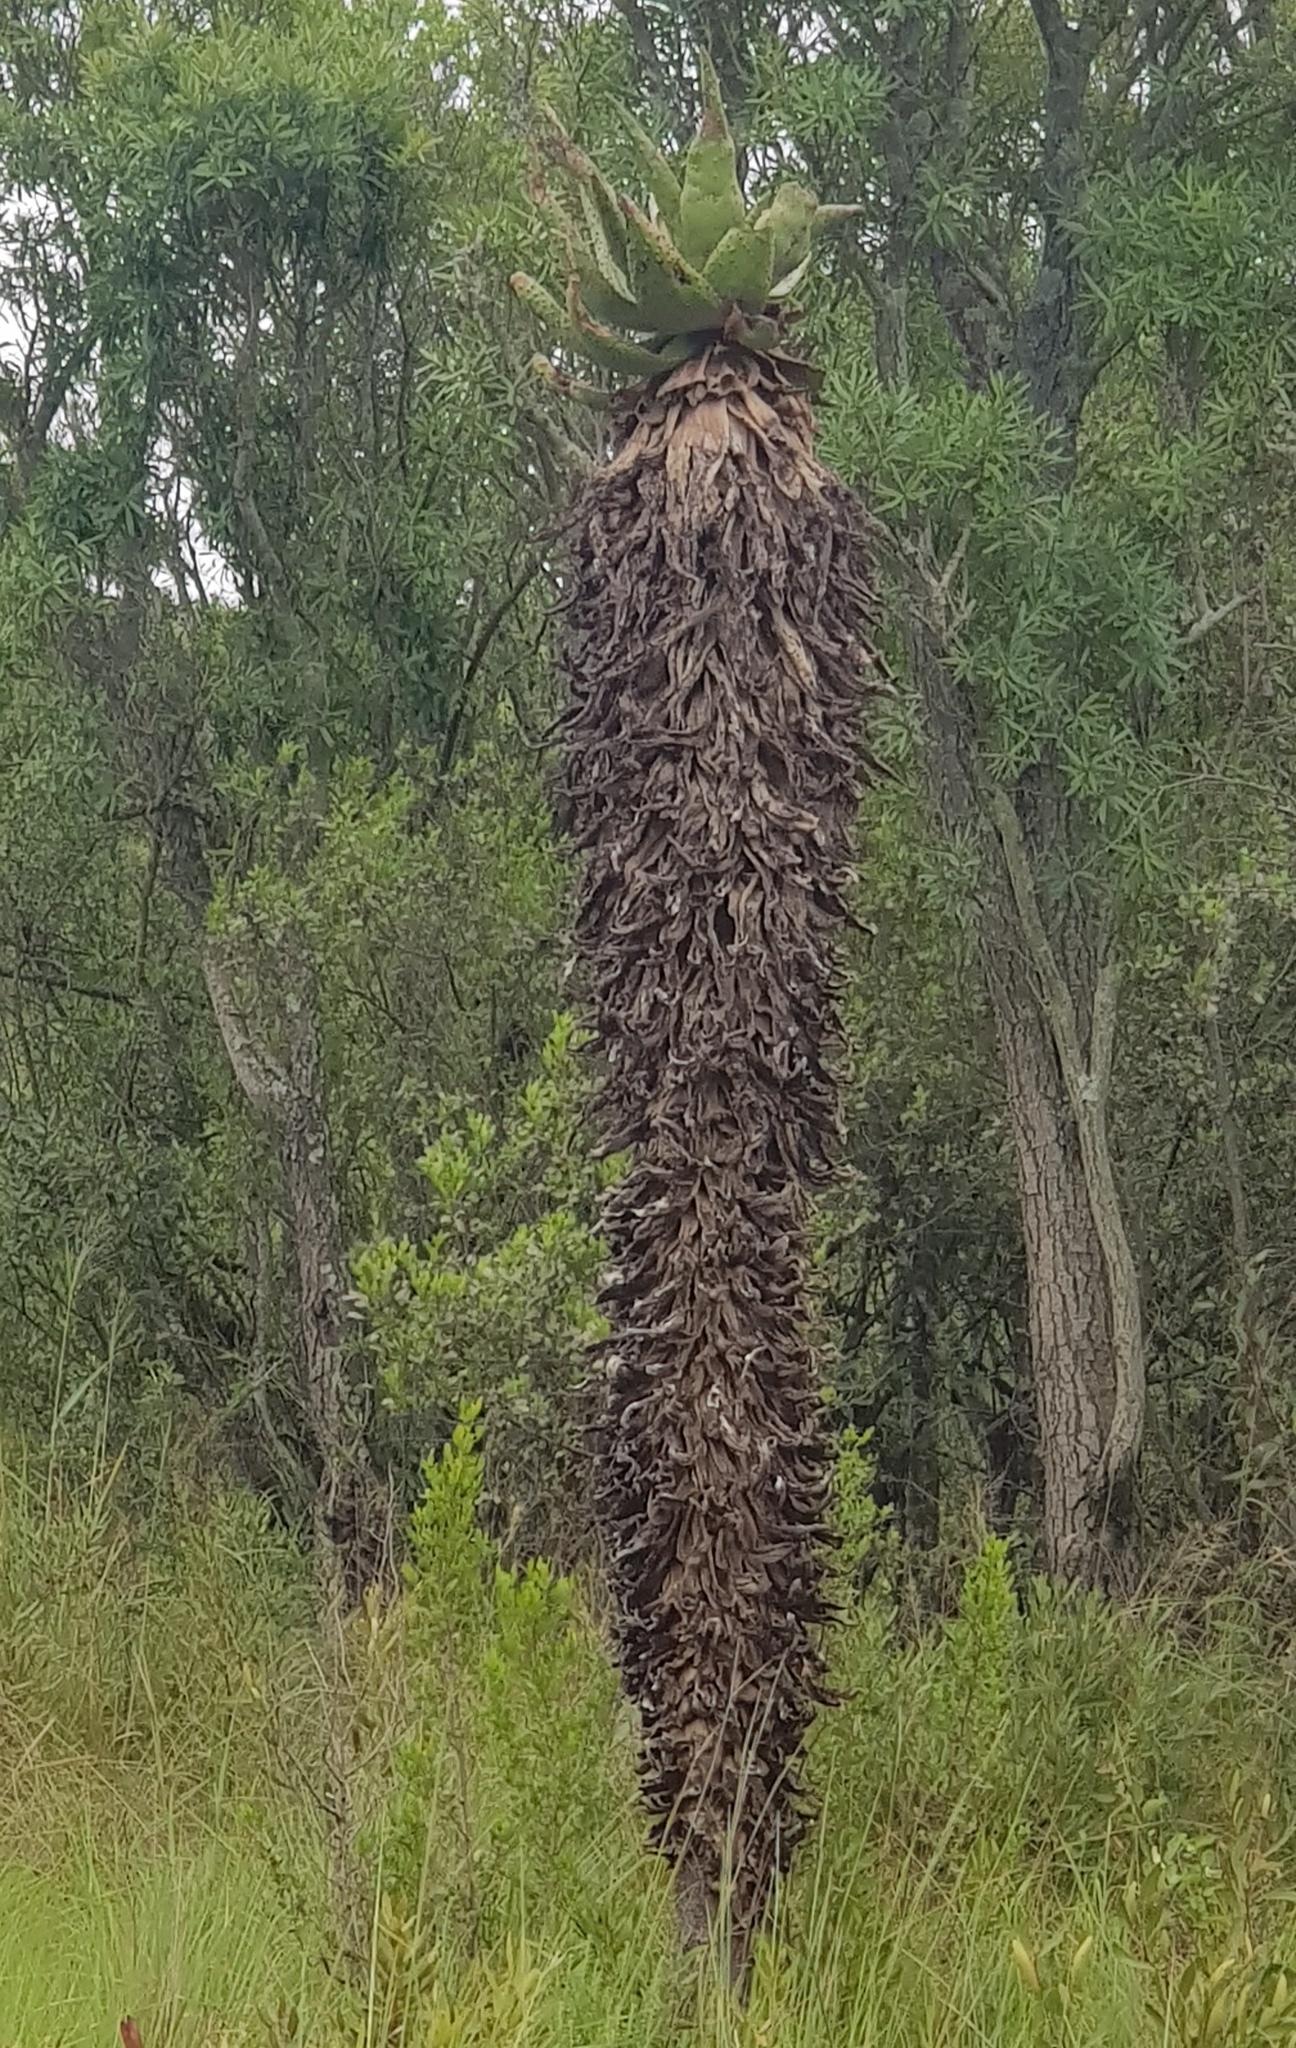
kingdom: Plantae
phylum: Tracheophyta
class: Liliopsida
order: Asparagales
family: Asphodelaceae
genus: Aloe
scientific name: Aloe marlothii
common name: Flat-flowered aloe
